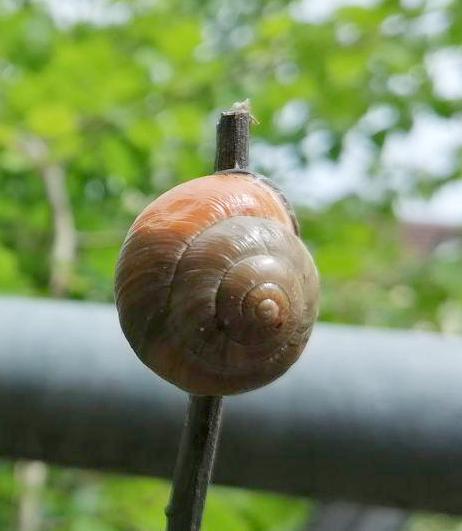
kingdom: Animalia
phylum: Mollusca
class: Gastropoda
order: Stylommatophora
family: Helicidae
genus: Cepaea
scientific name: Cepaea nemoralis
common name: Grovesnail
